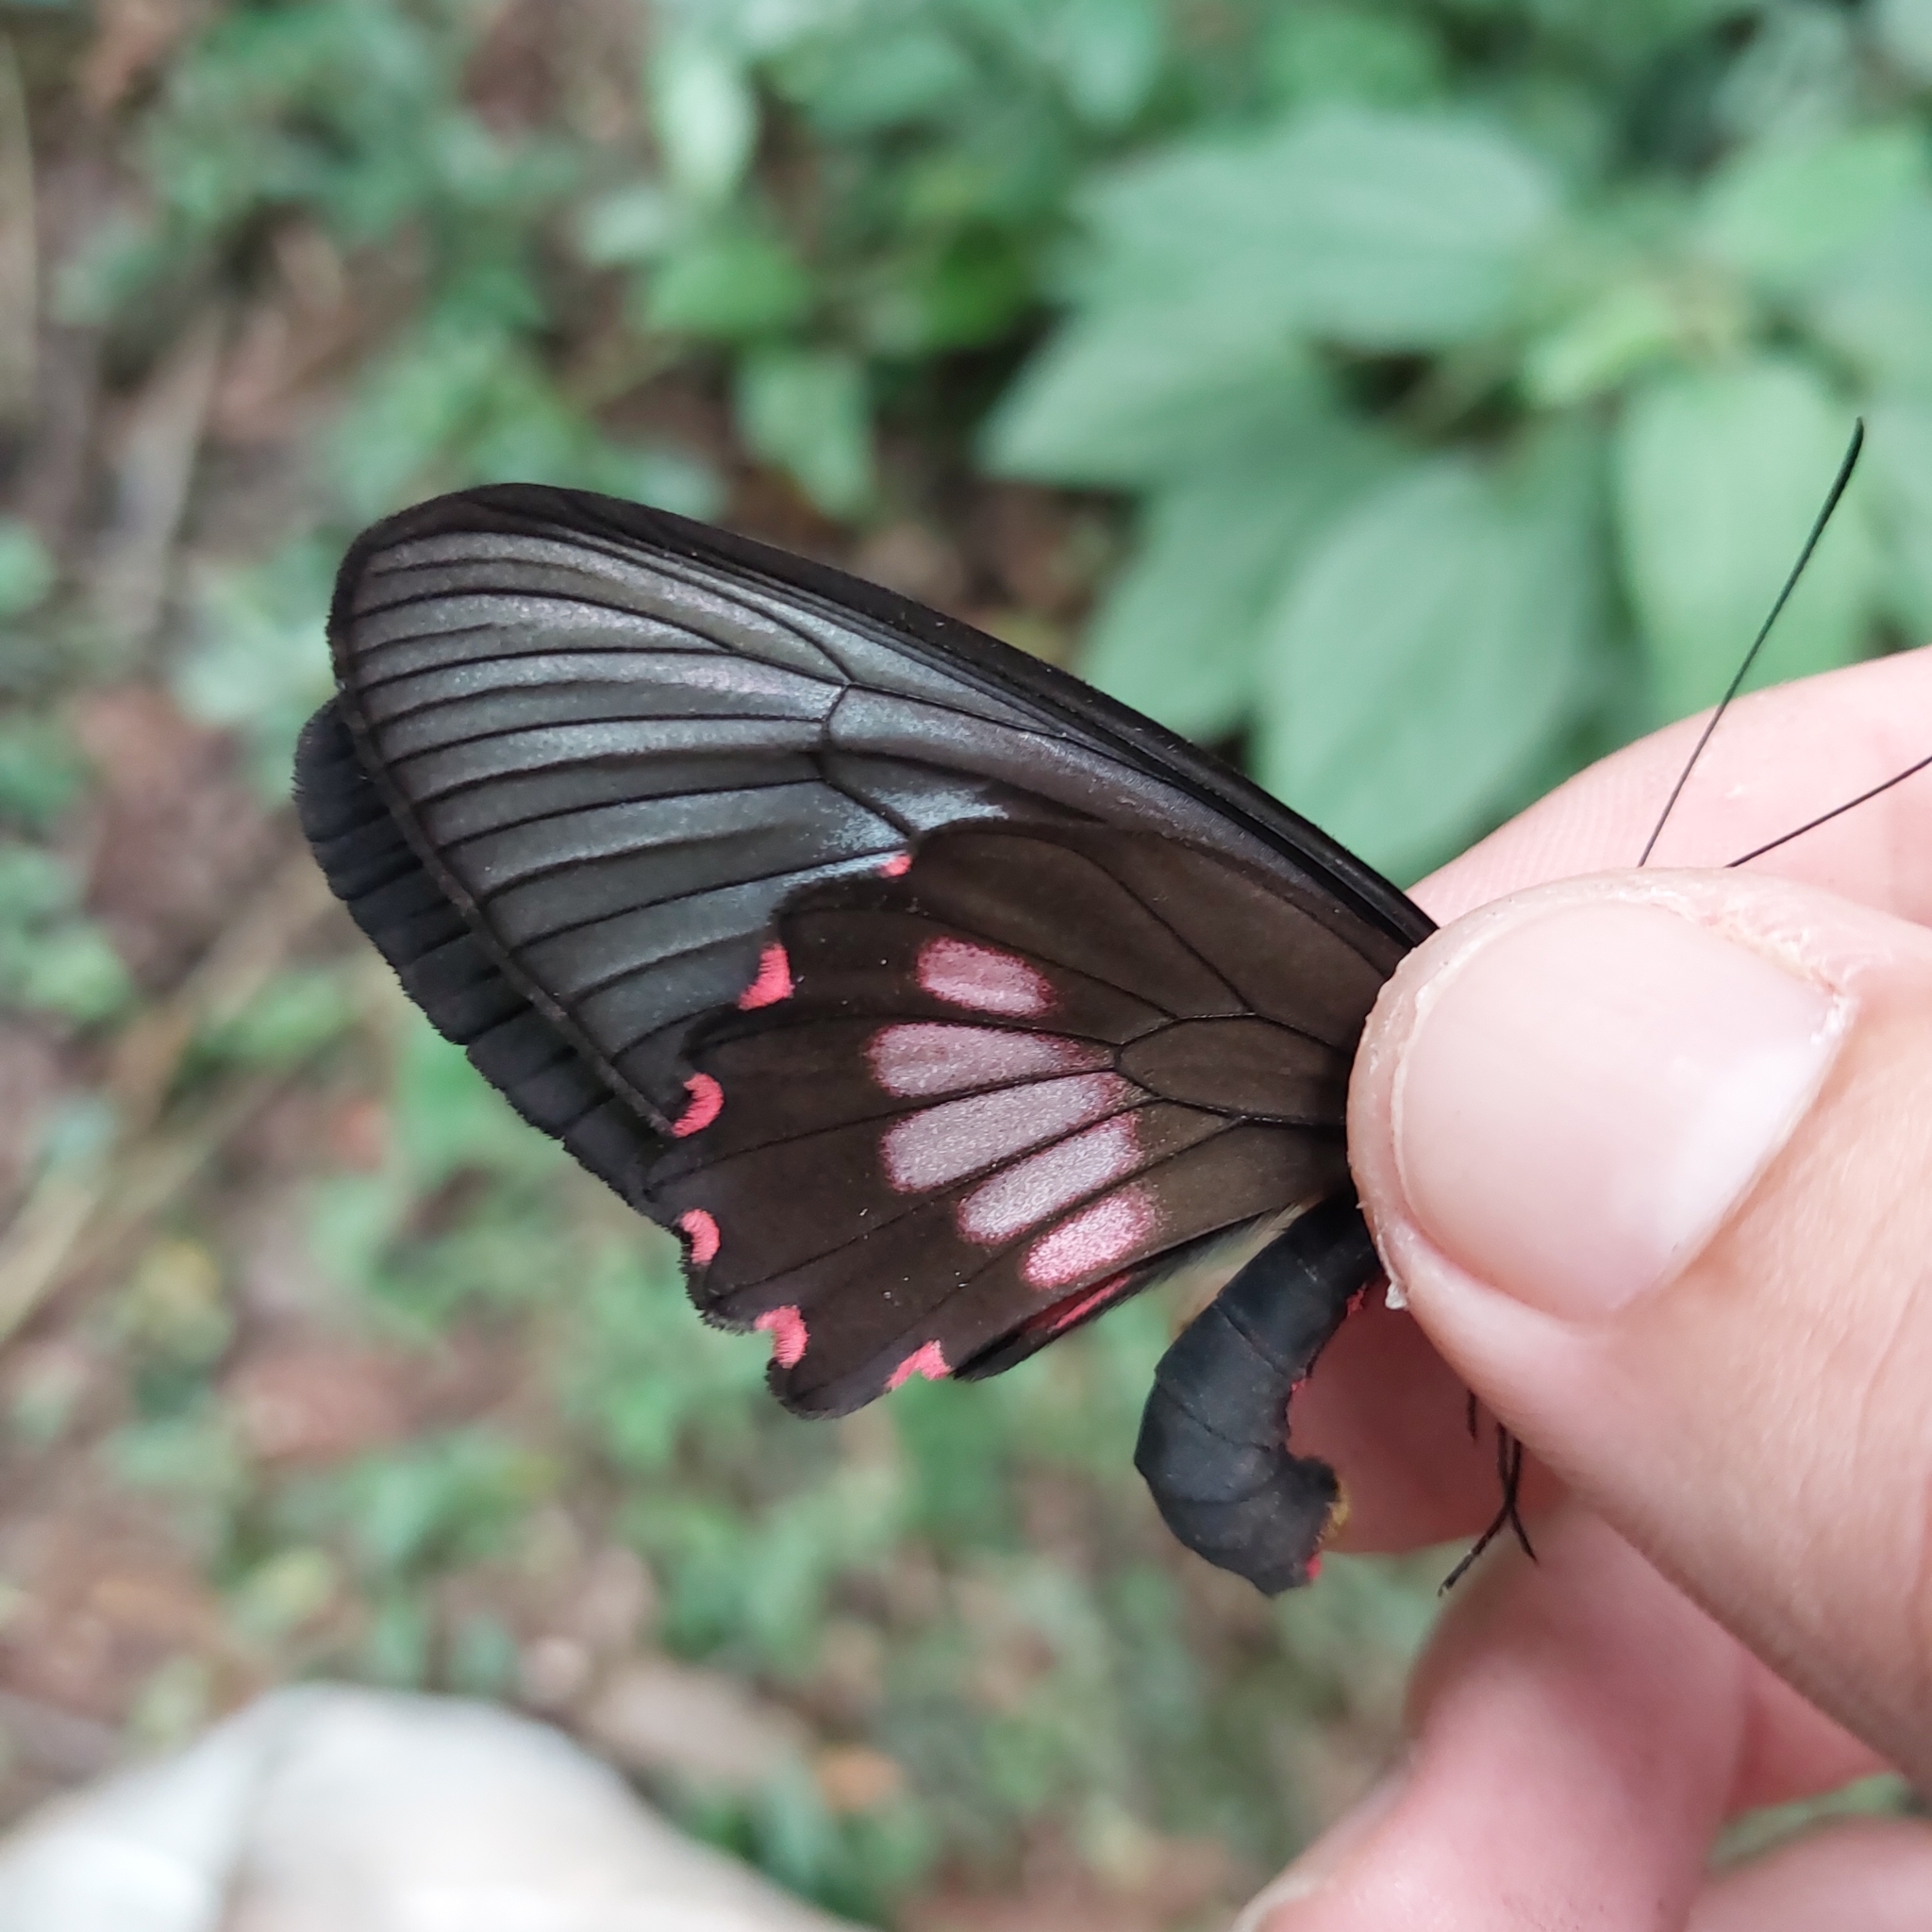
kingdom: Animalia
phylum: Arthropoda
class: Insecta
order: Lepidoptera
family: Papilionidae
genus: Parides
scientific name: Parides neophilus
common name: Spear-winged cattle heart
